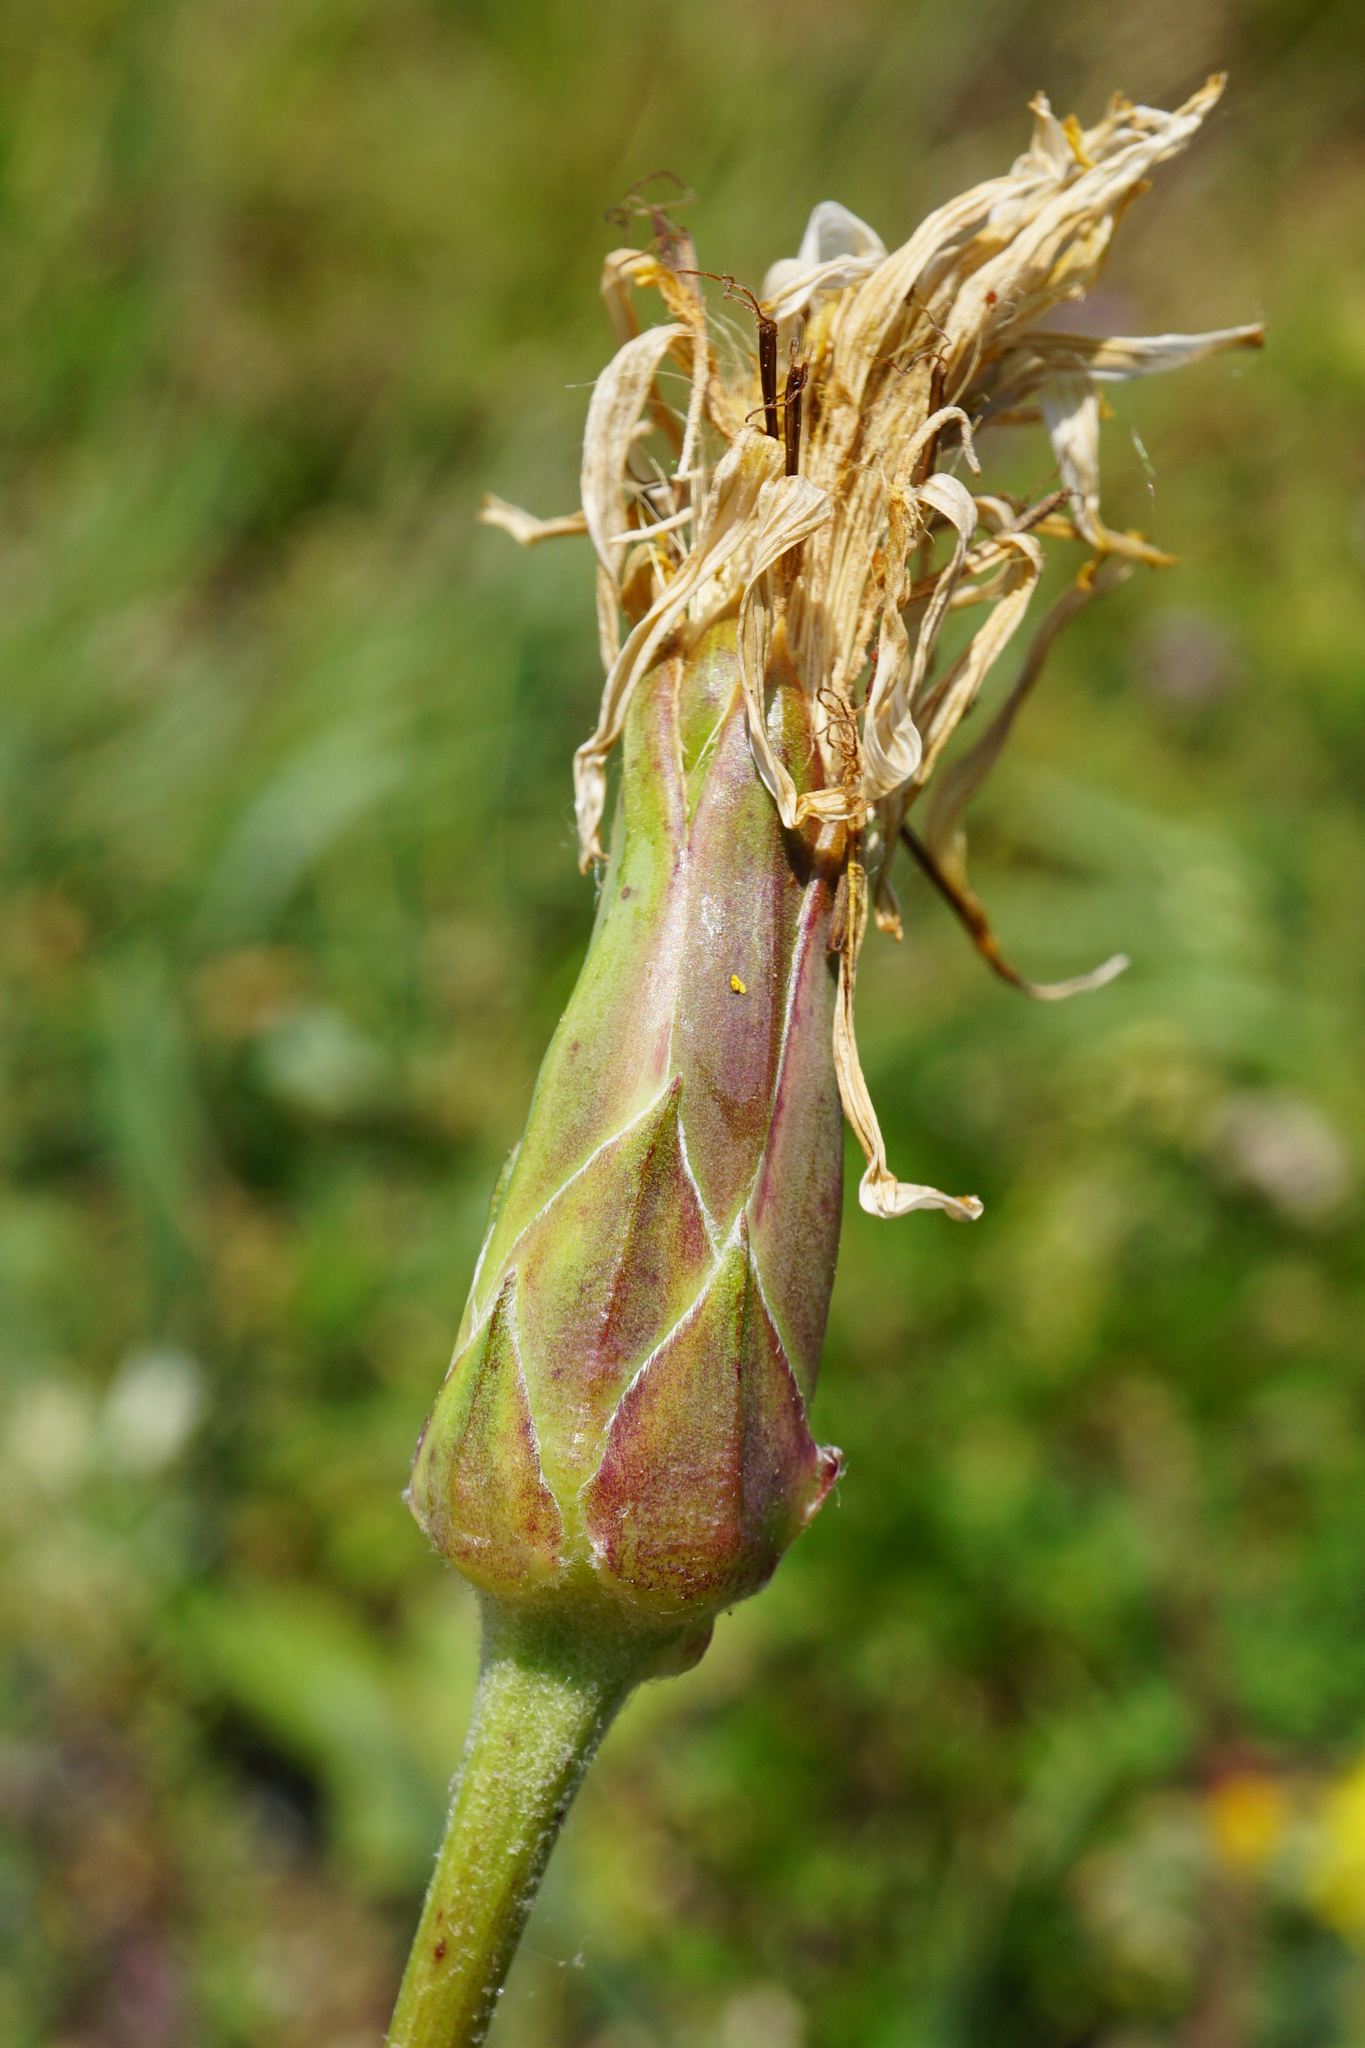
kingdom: Plantae
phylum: Tracheophyta
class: Magnoliopsida
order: Asterales
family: Asteraceae
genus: Pseudopodospermum
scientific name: Pseudopodospermum hispanicum
